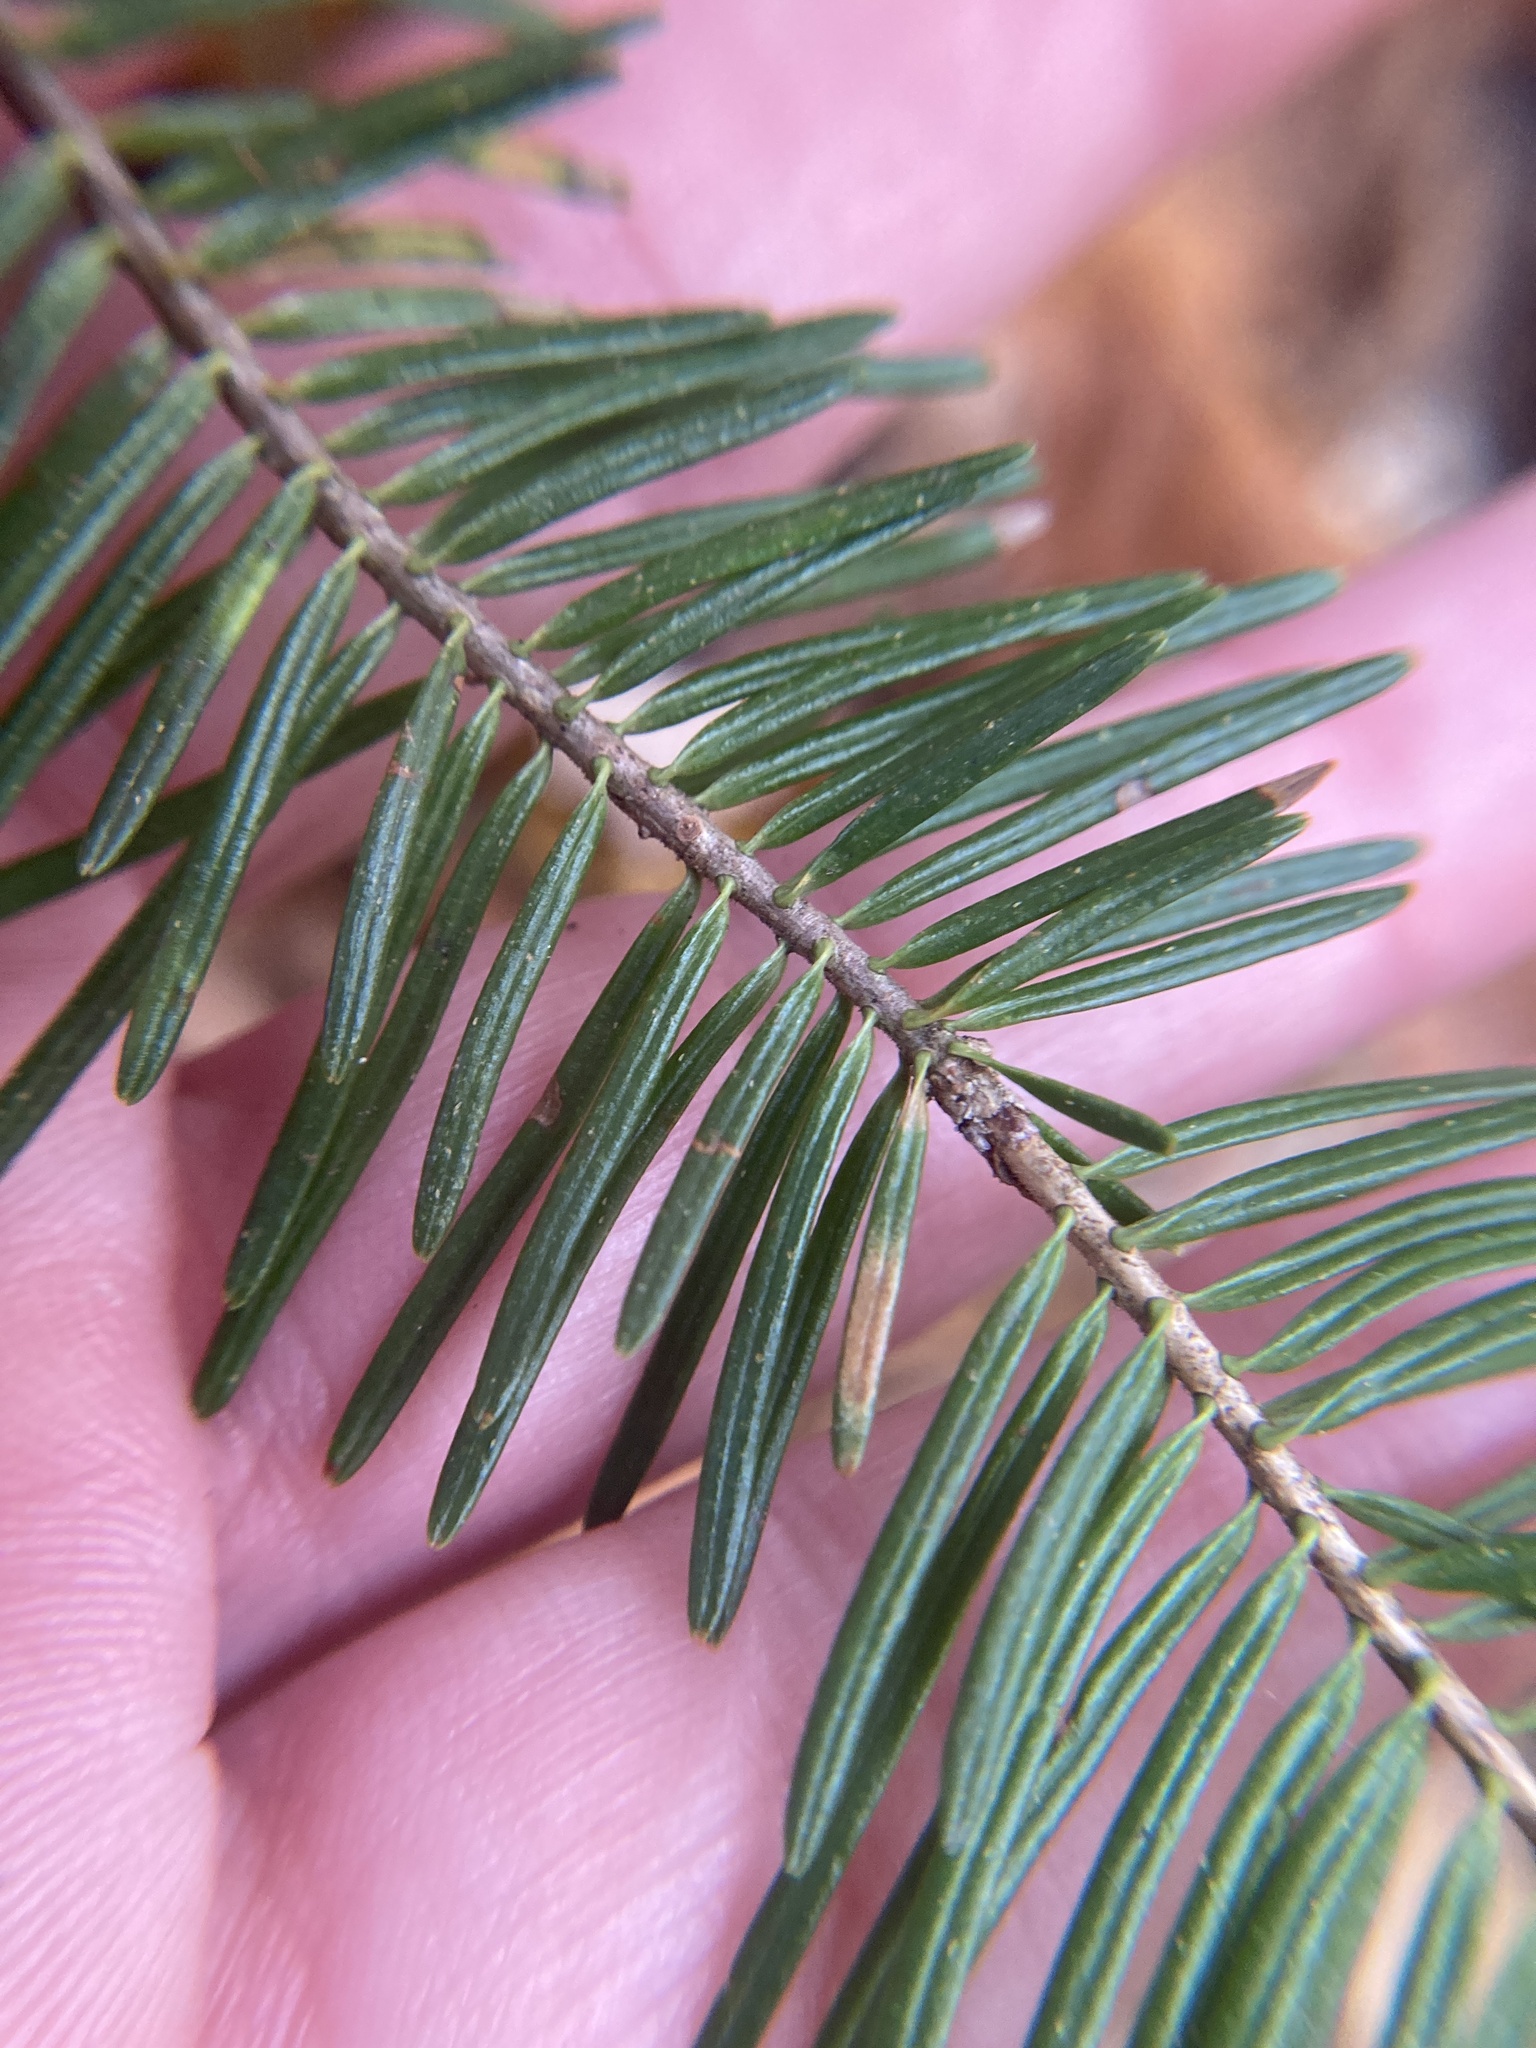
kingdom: Plantae
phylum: Tracheophyta
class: Pinopsida
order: Pinales
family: Pinaceae
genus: Abies
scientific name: Abies balsamea
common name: Balsam fir
